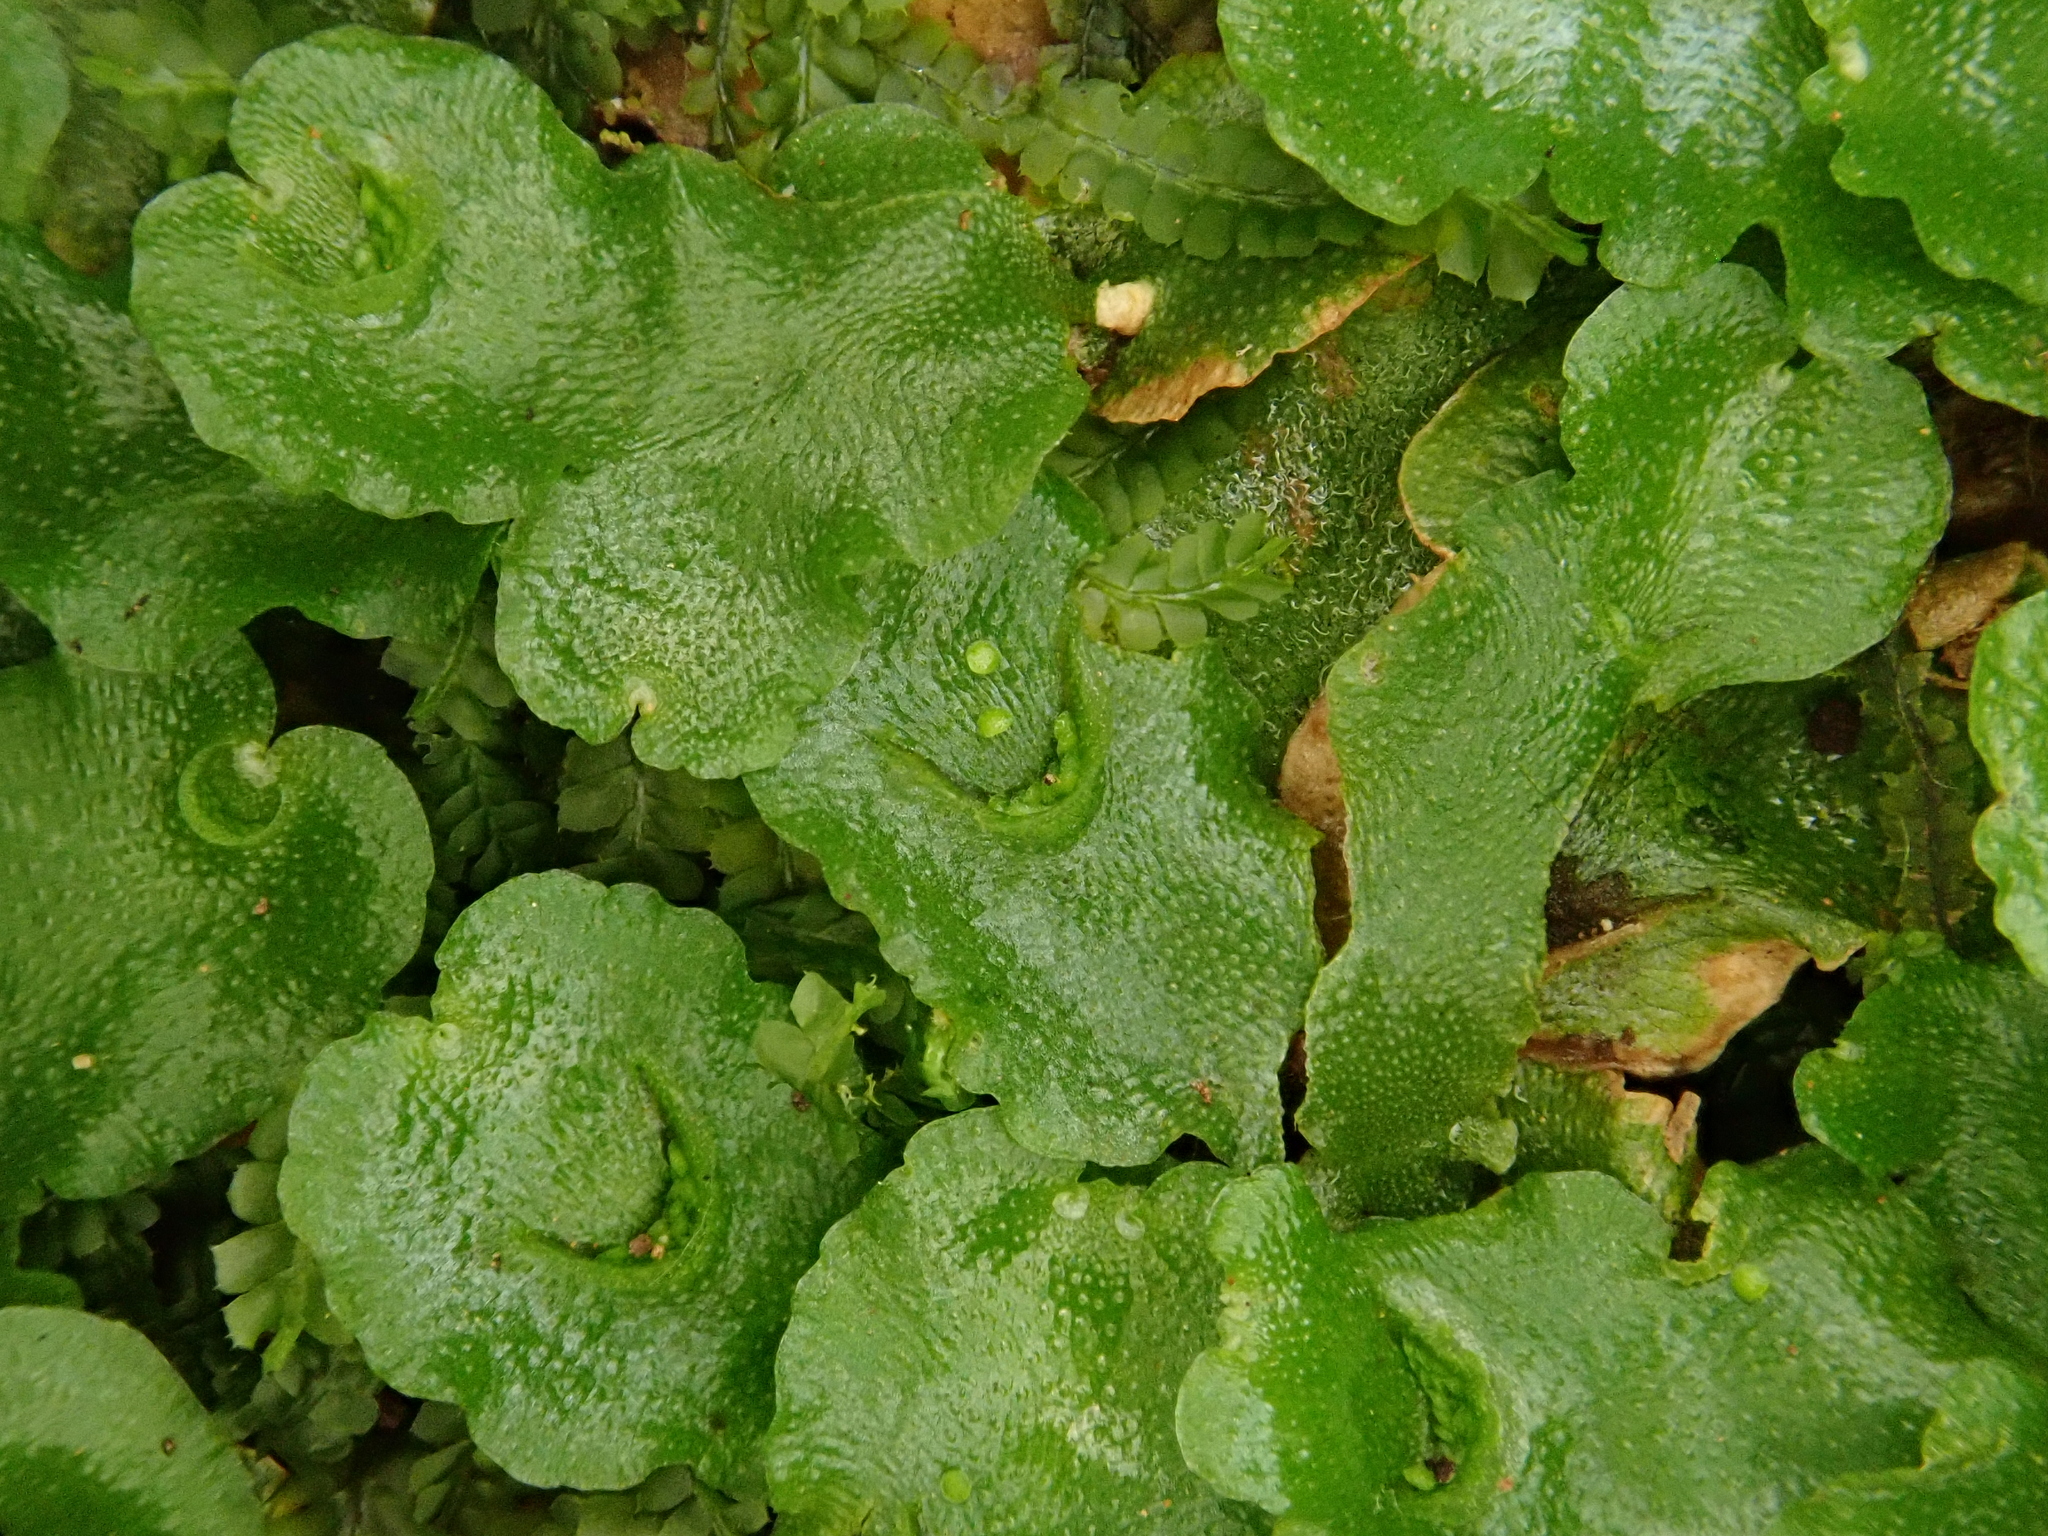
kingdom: Plantae
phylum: Marchantiophyta
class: Marchantiopsida
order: Lunulariales
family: Lunulariaceae
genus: Lunularia
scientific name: Lunularia cruciata
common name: Crescent-cup liverwort
